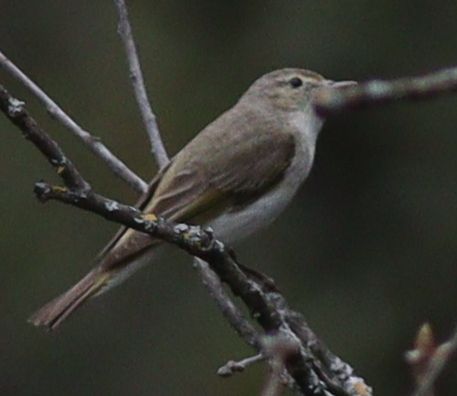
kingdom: Animalia
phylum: Chordata
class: Aves
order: Passeriformes
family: Phylloscopidae
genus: Phylloscopus
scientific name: Phylloscopus orientalis
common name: Eastern bonelli's warbler
